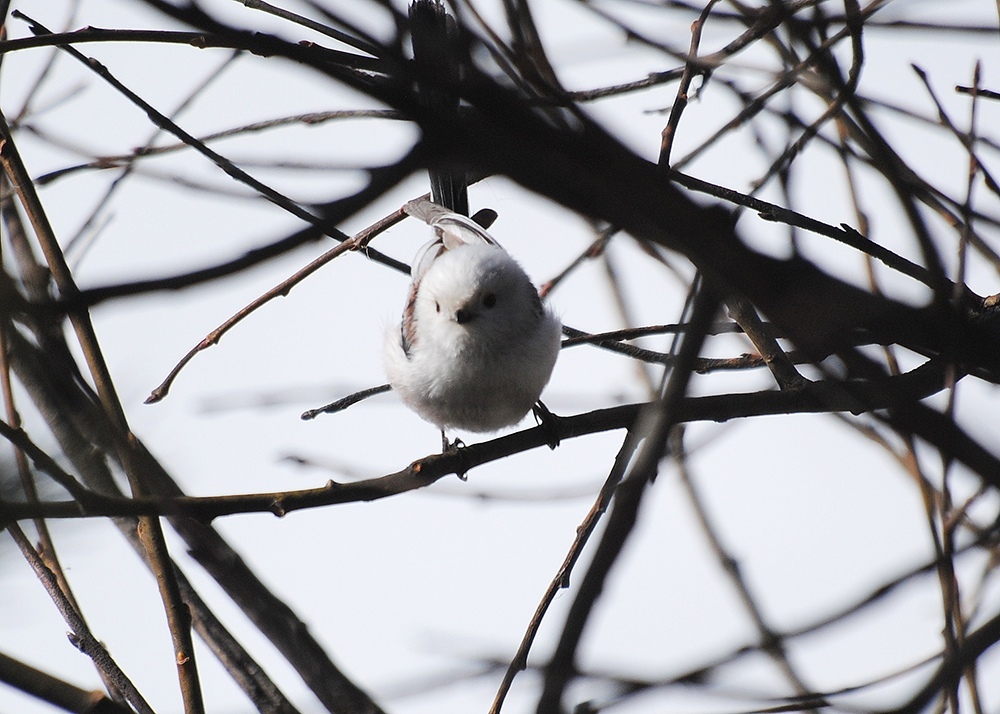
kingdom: Animalia
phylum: Chordata
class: Aves
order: Passeriformes
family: Aegithalidae
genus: Aegithalos
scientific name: Aegithalos caudatus
